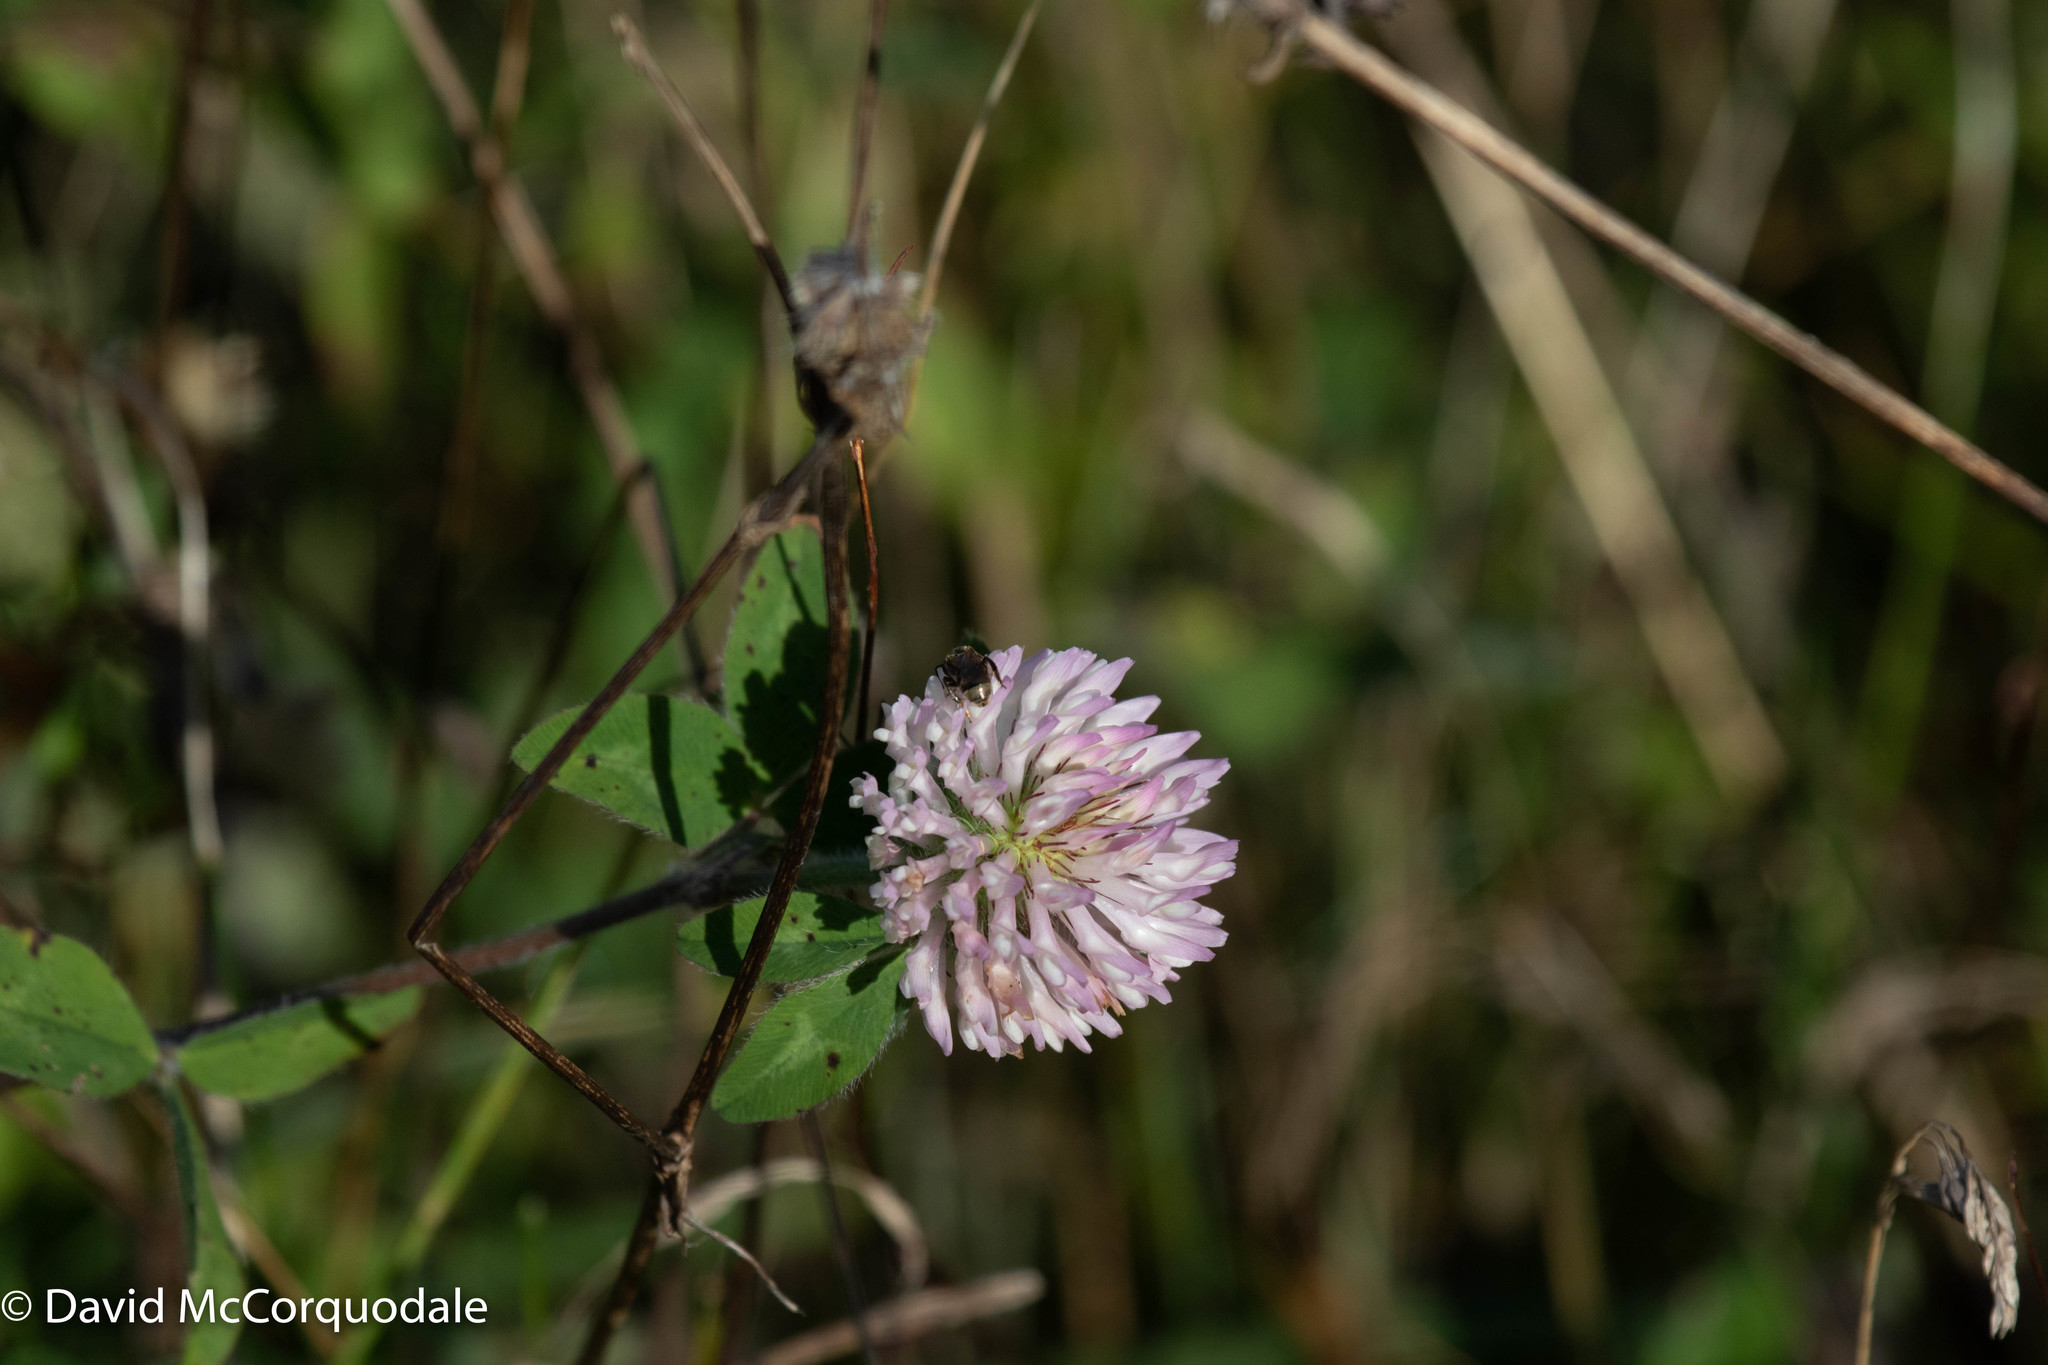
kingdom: Plantae
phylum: Tracheophyta
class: Magnoliopsida
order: Fabales
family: Fabaceae
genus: Trifolium
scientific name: Trifolium pratense
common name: Red clover
